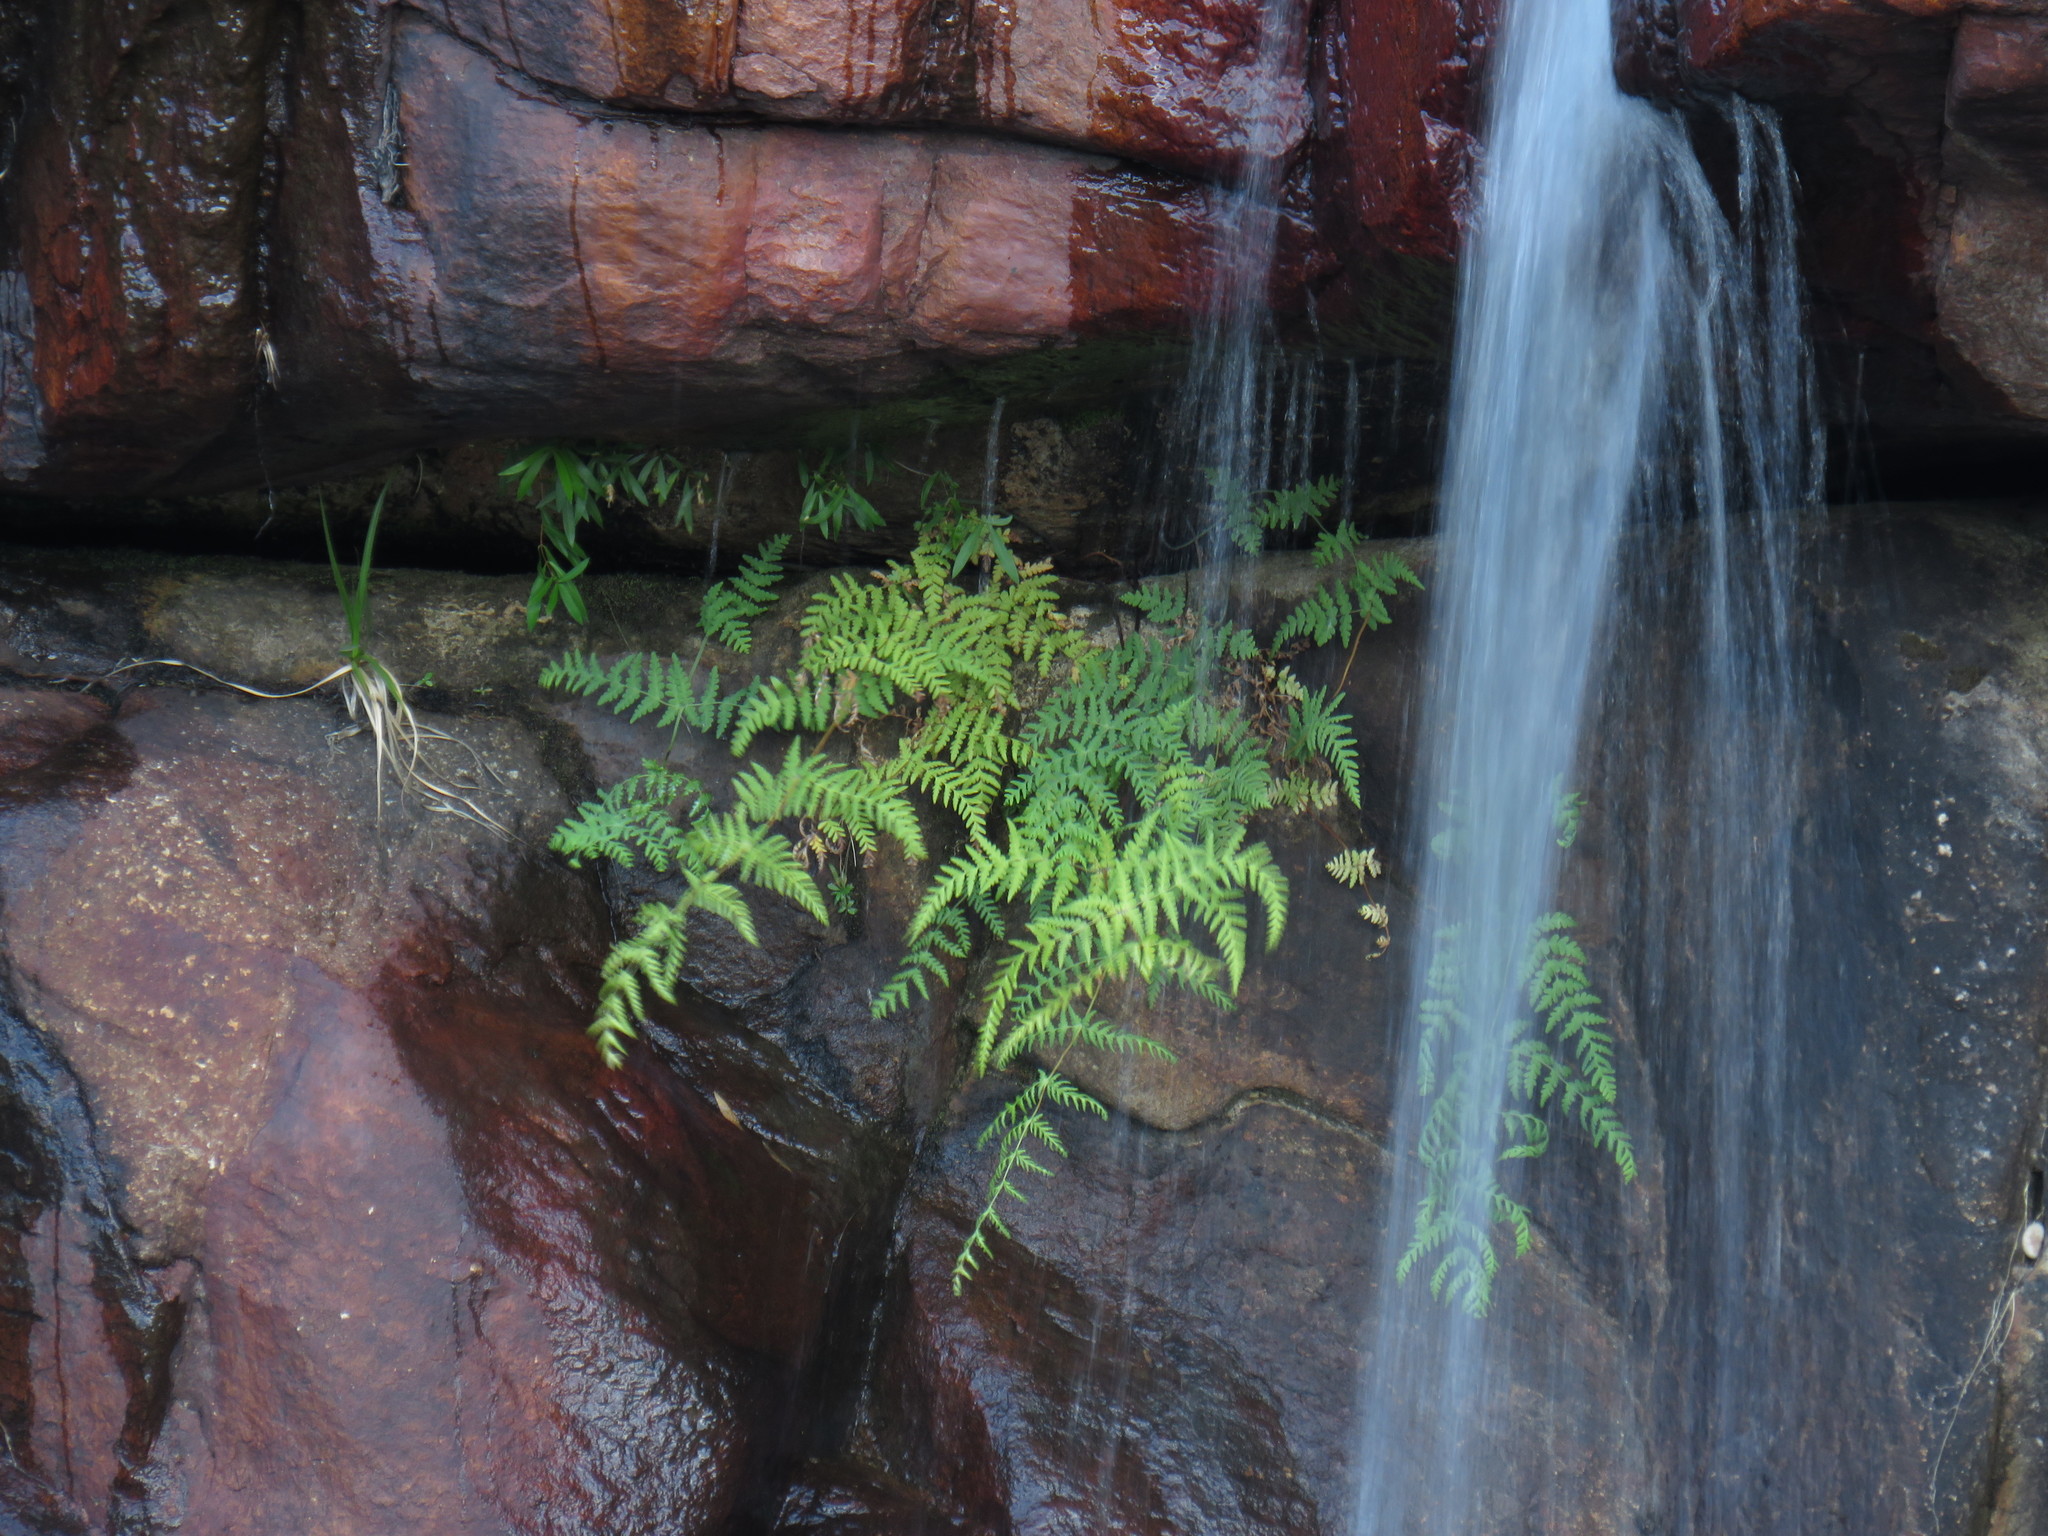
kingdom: Plantae
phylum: Tracheophyta
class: Polypodiopsida
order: Polypodiales
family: Dennstaedtiaceae
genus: Histiopteris
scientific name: Histiopteris incisa
